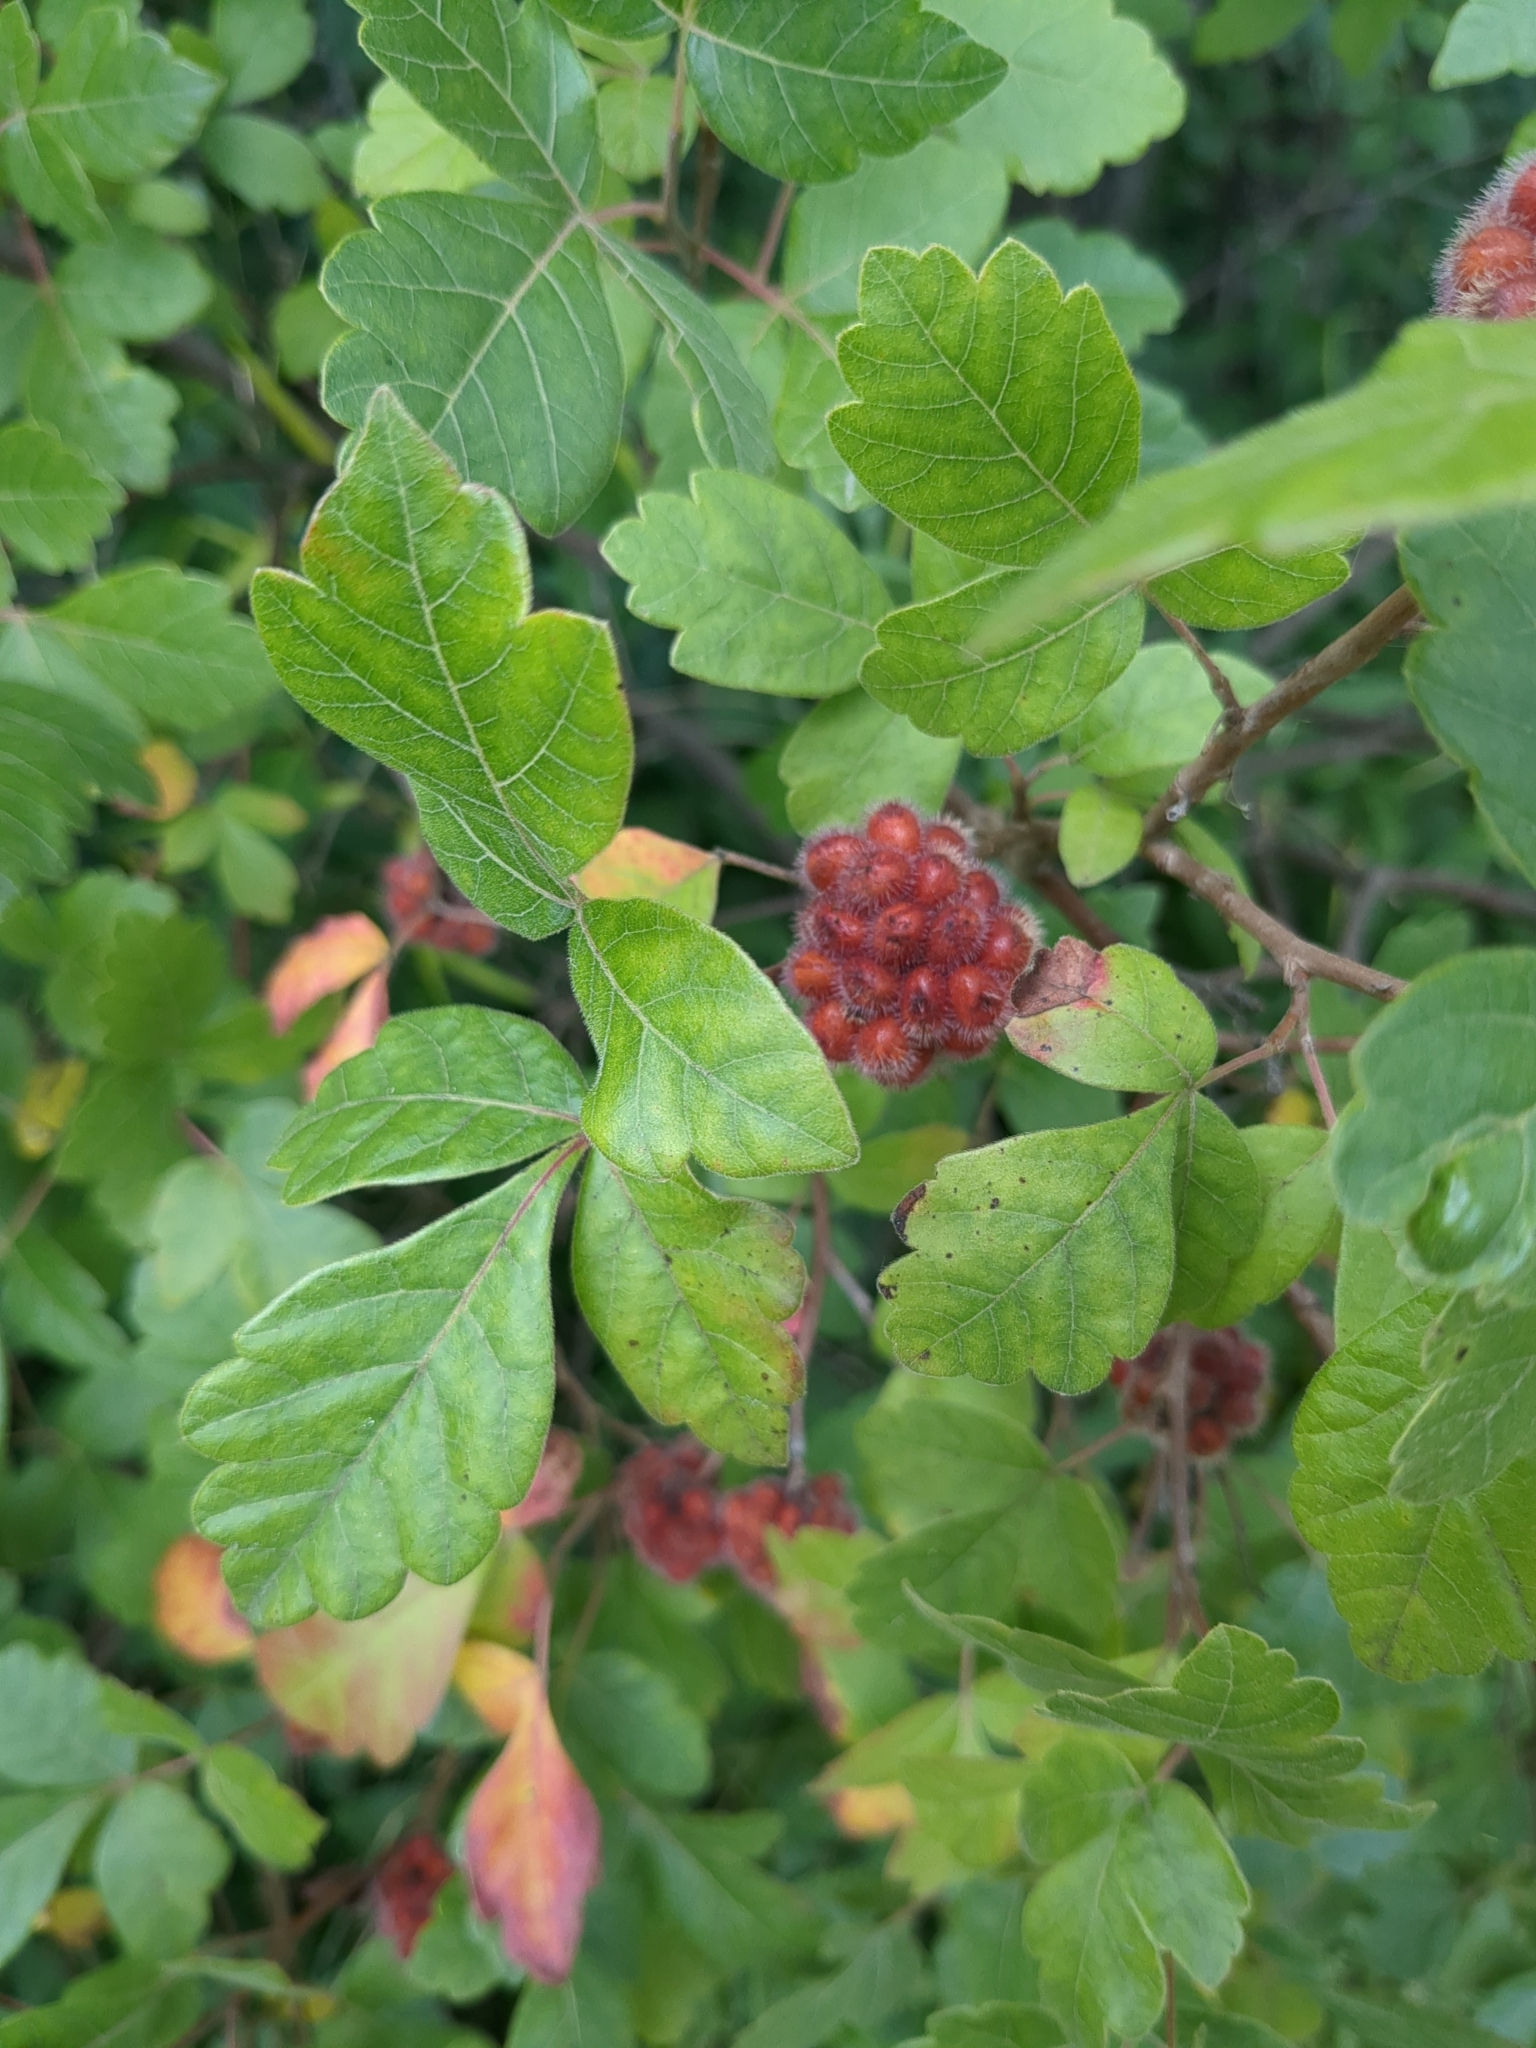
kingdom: Plantae
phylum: Tracheophyta
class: Magnoliopsida
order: Sapindales
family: Anacardiaceae
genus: Rhus
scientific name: Rhus aromatica
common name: Aromatic sumac
